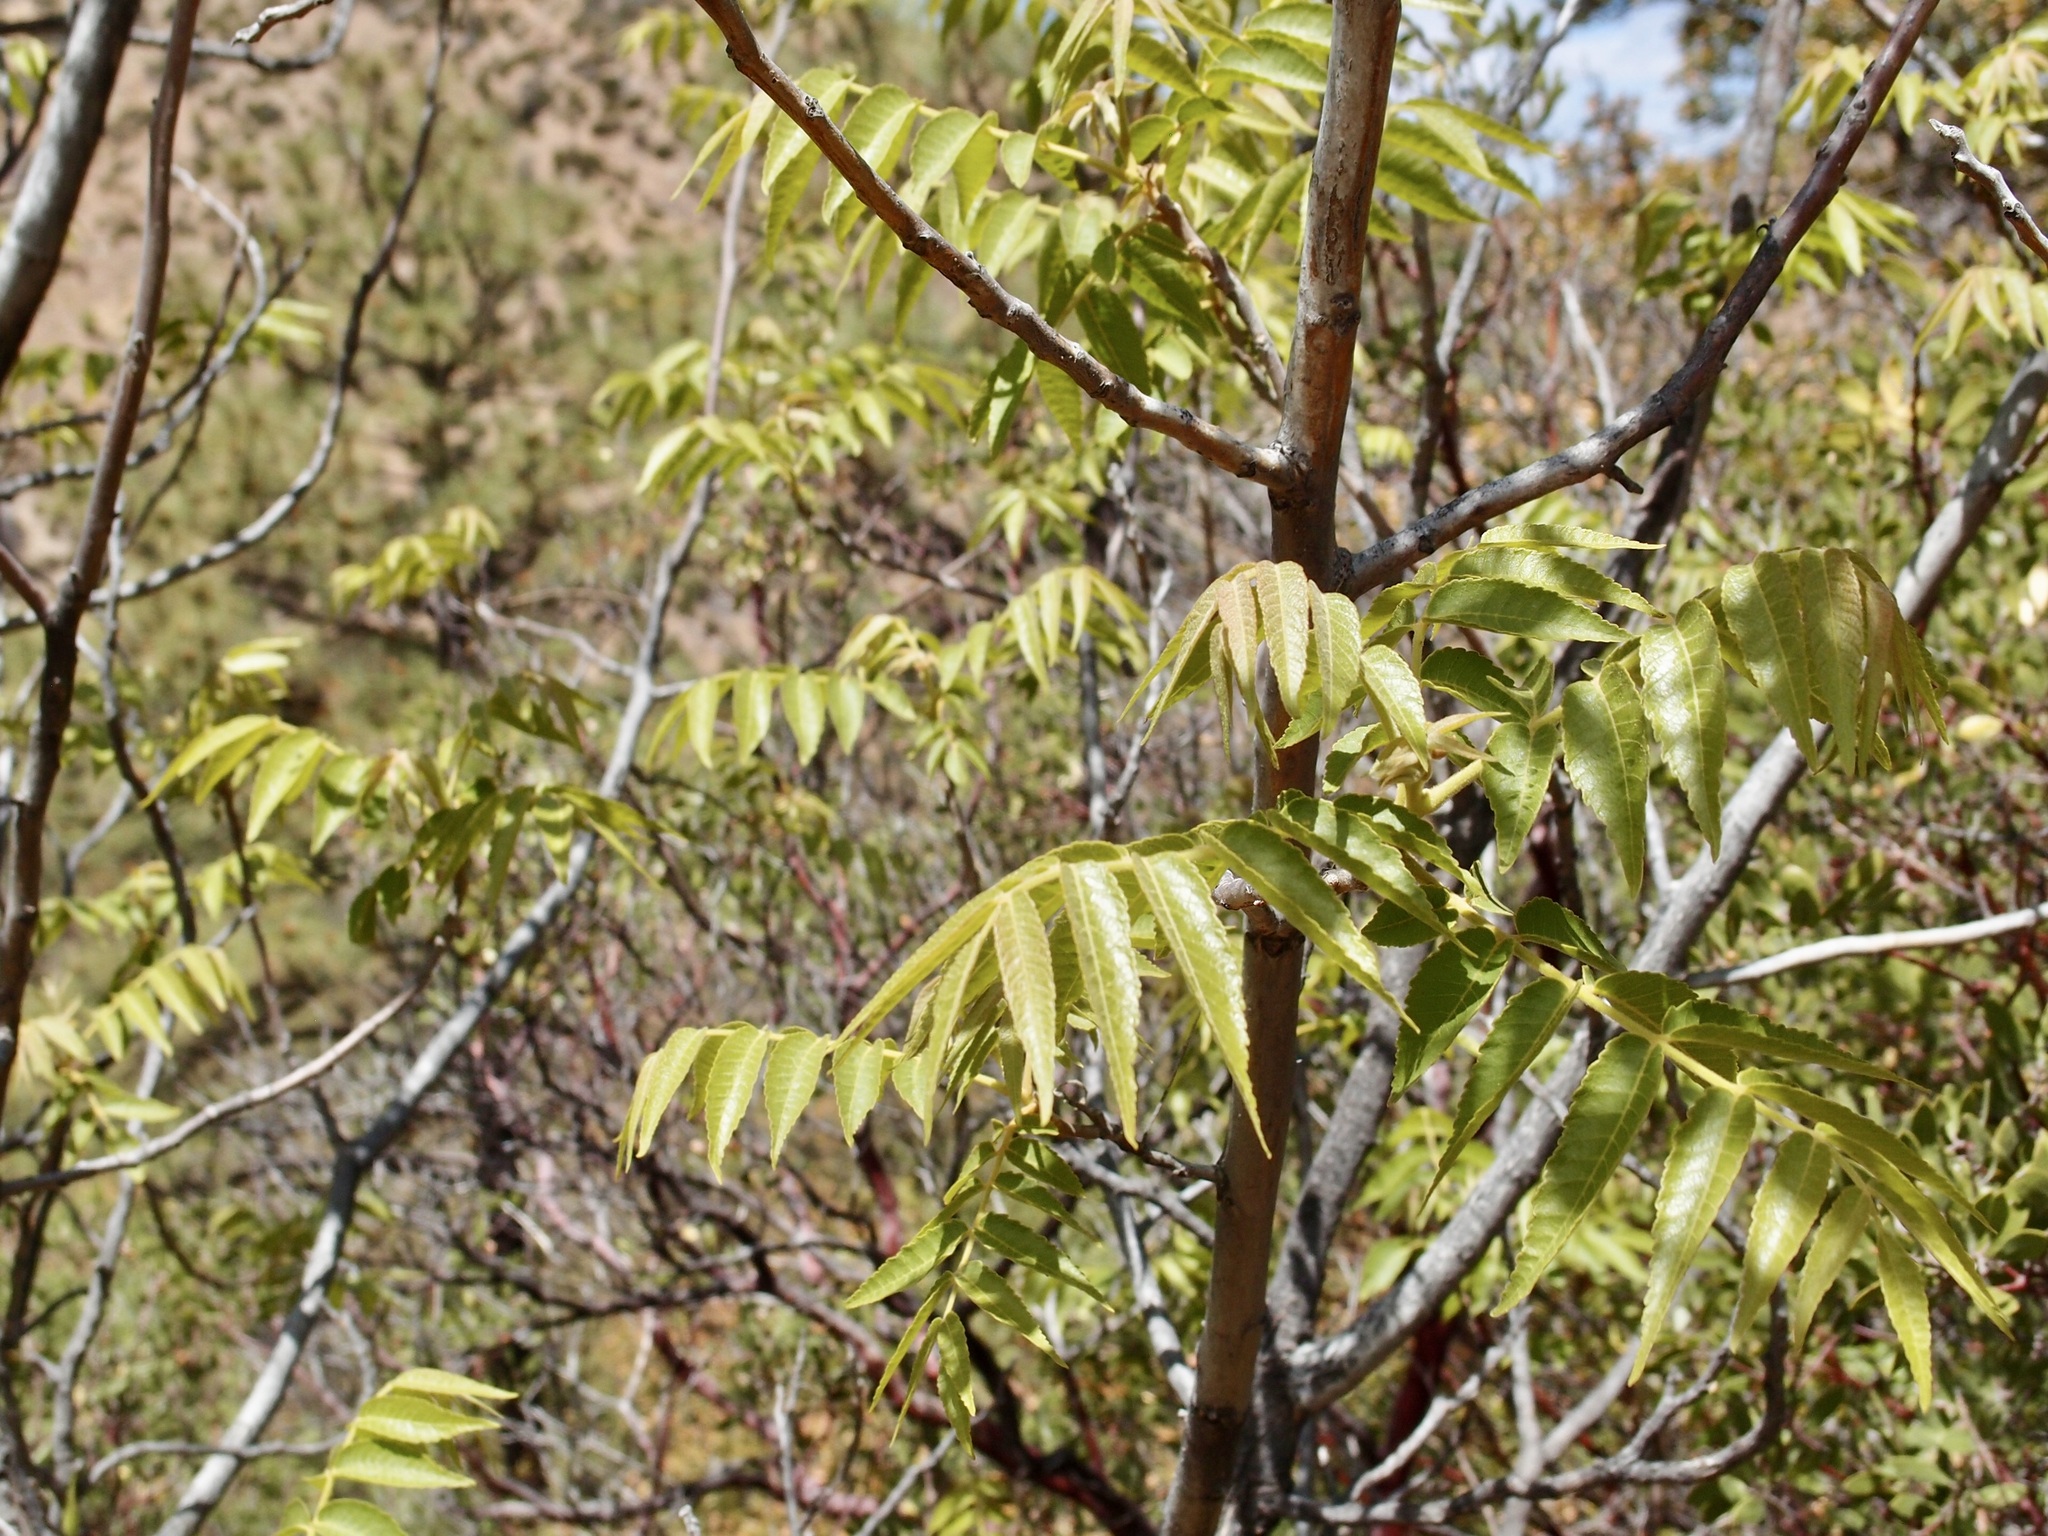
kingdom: Plantae
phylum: Tracheophyta
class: Magnoliopsida
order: Fagales
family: Juglandaceae
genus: Juglans
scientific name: Juglans major
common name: Arizona walnut
